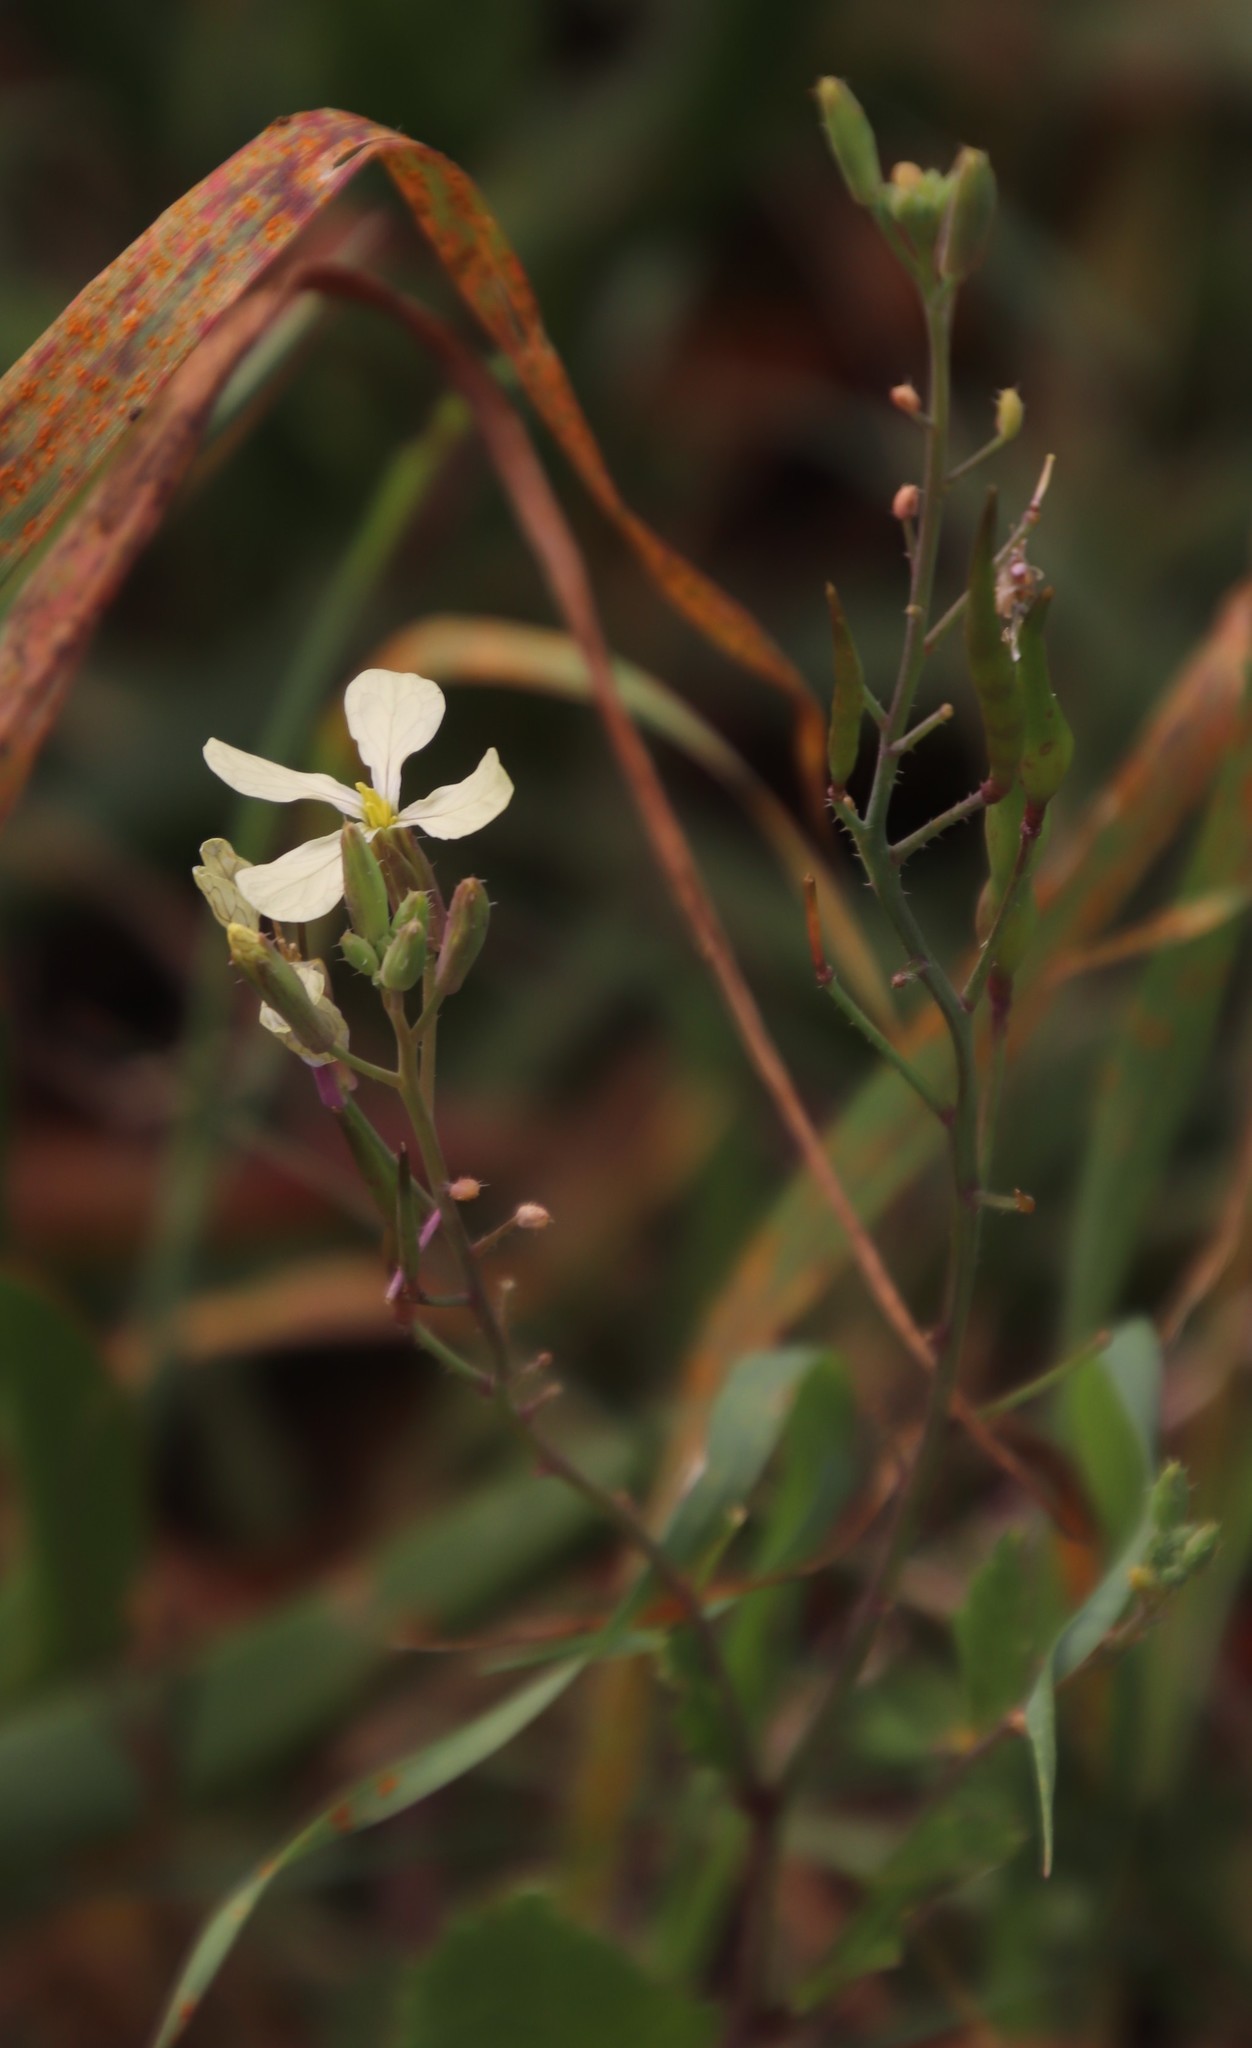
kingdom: Plantae
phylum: Tracheophyta
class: Magnoliopsida
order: Brassicales
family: Brassicaceae
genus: Raphanus
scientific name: Raphanus raphanistrum
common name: Wild radish
